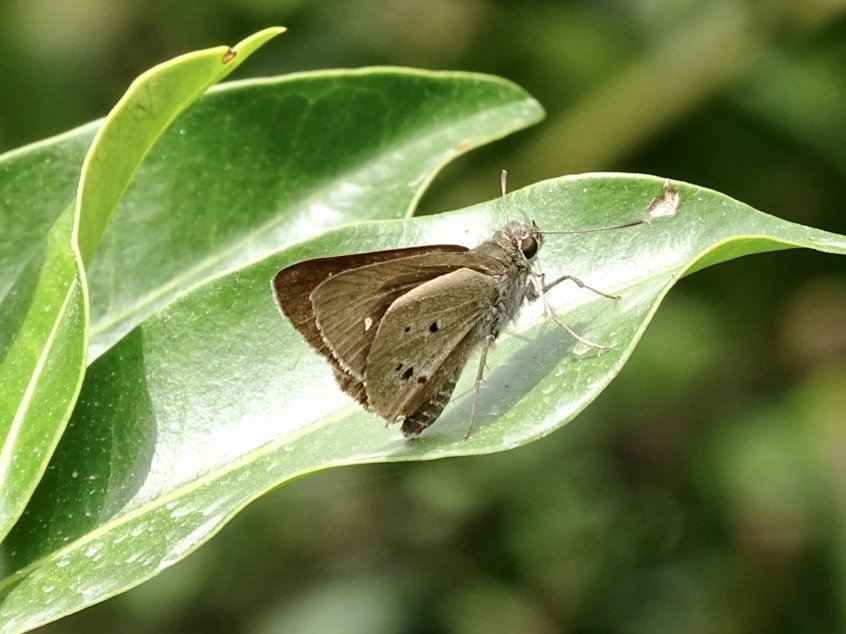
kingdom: Animalia
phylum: Arthropoda
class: Insecta
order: Lepidoptera
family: Hesperiidae
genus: Suastus
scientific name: Suastus gremius
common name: Indian palm bob
